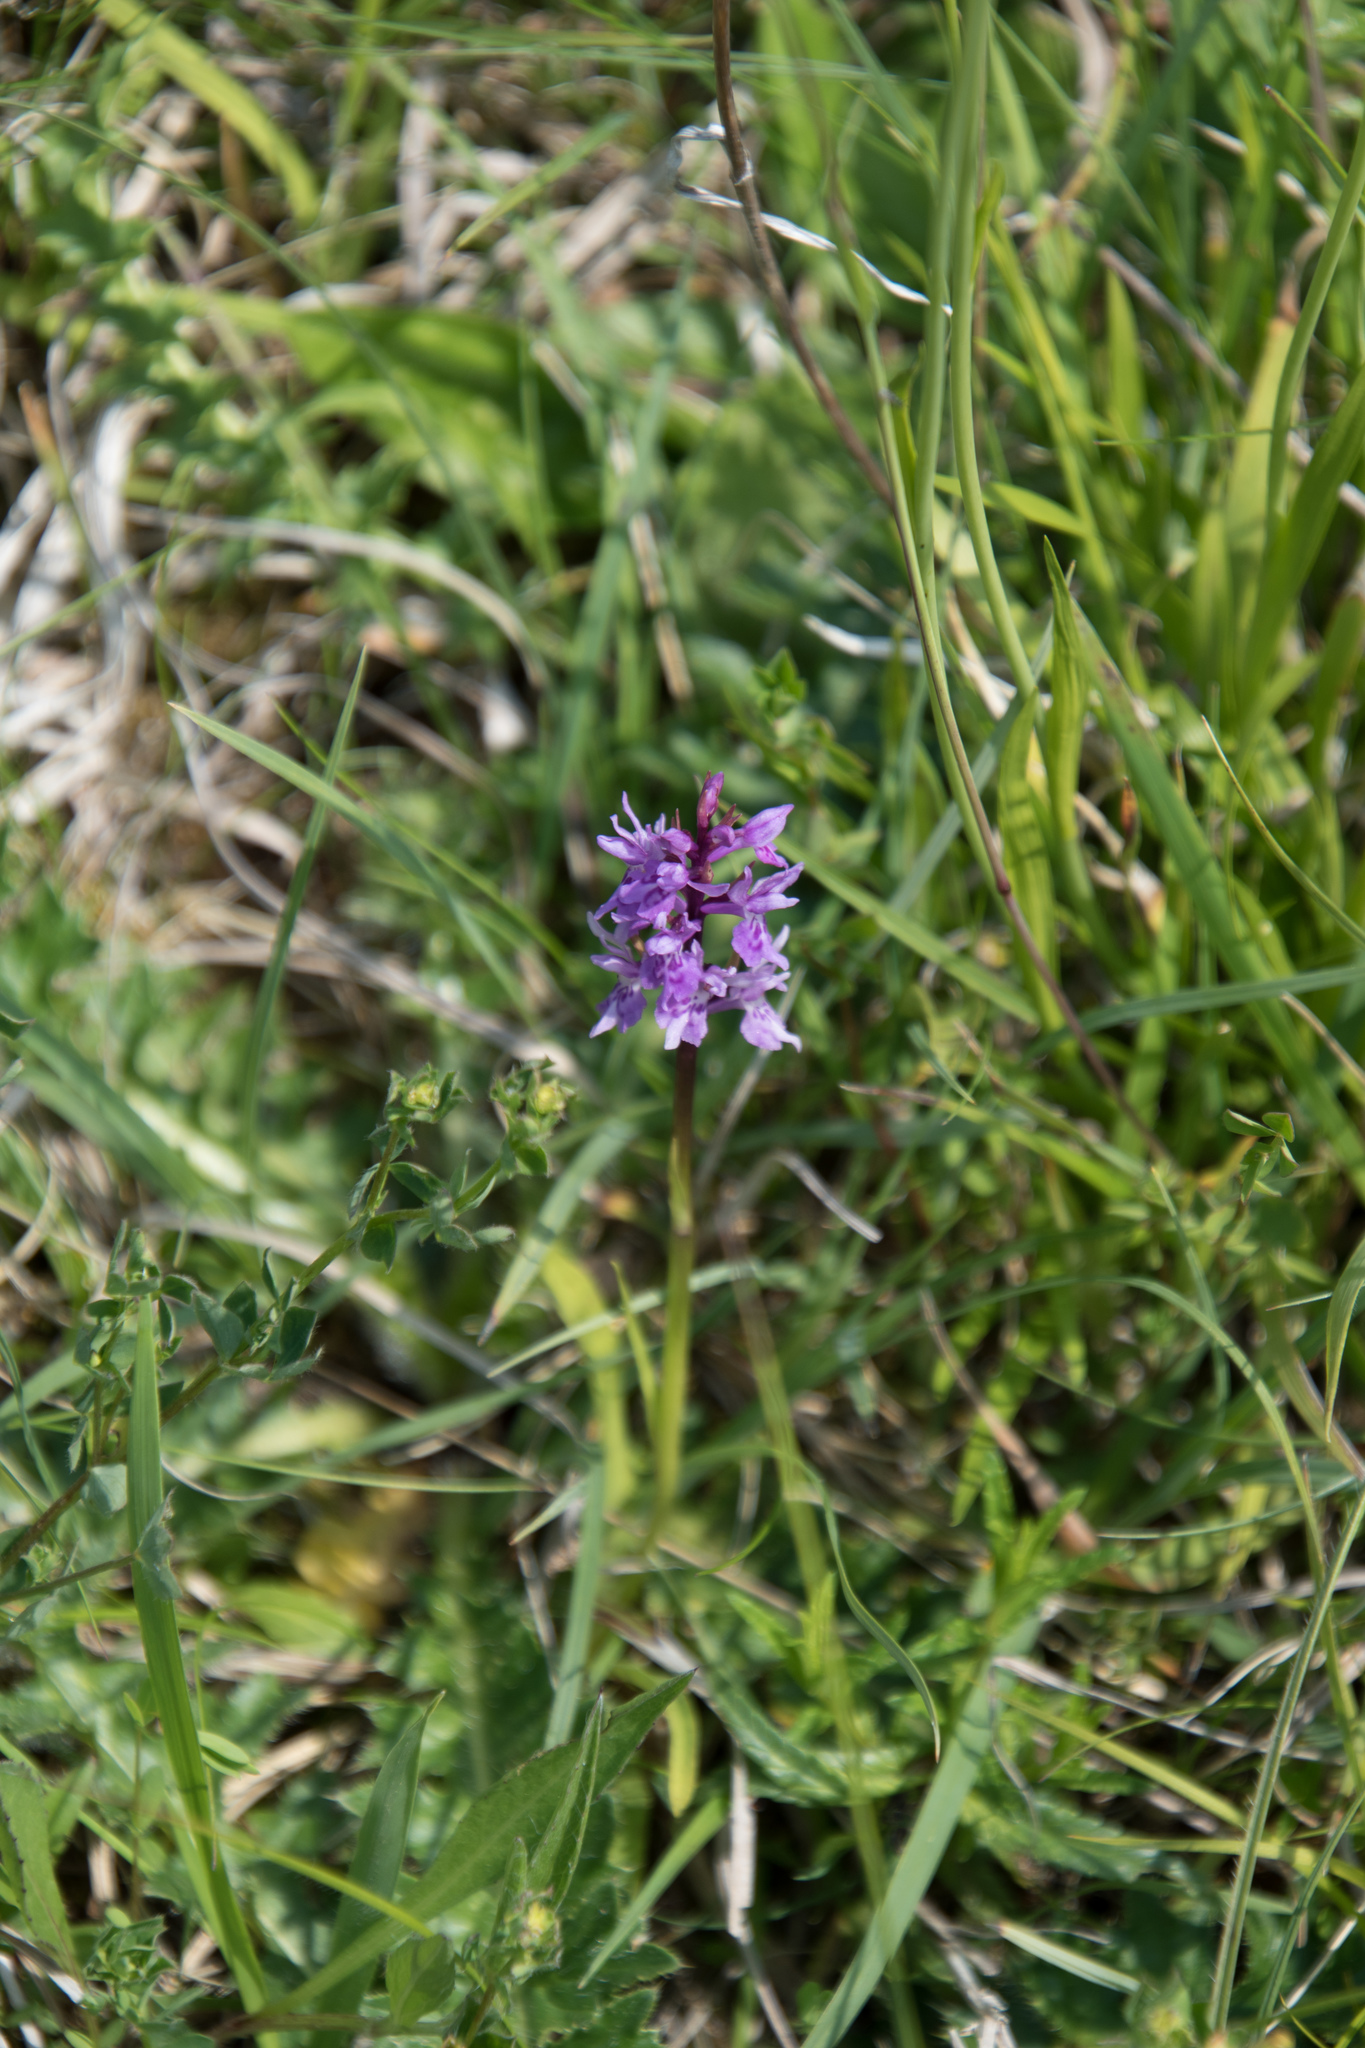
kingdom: Plantae
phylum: Tracheophyta
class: Liliopsida
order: Asparagales
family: Orchidaceae
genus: Dactylorhiza
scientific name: Dactylorhiza maculata
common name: Heath spotted-orchid
